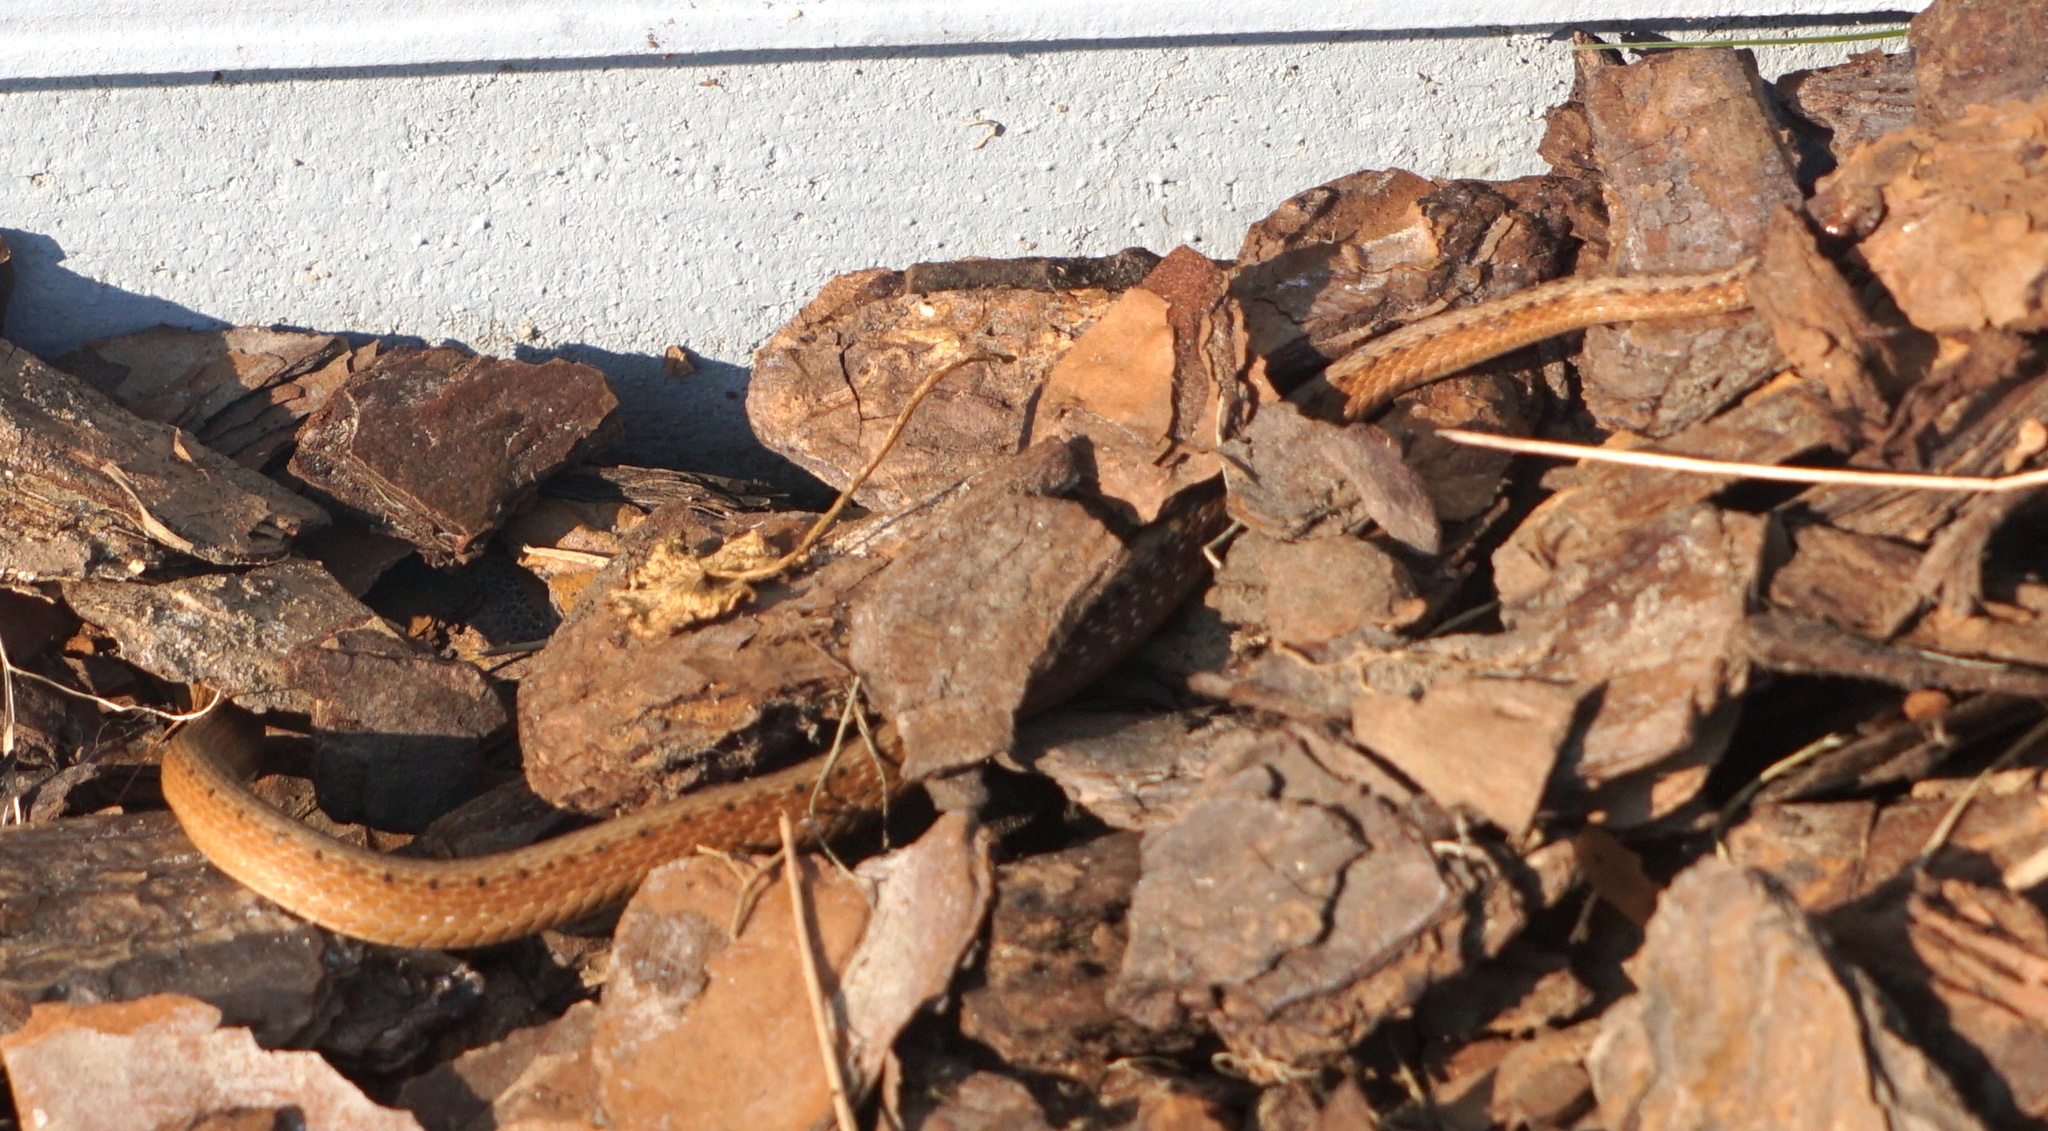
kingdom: Animalia
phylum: Chordata
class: Squamata
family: Colubridae
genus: Storeria
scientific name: Storeria victa
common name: Florida brown snake
